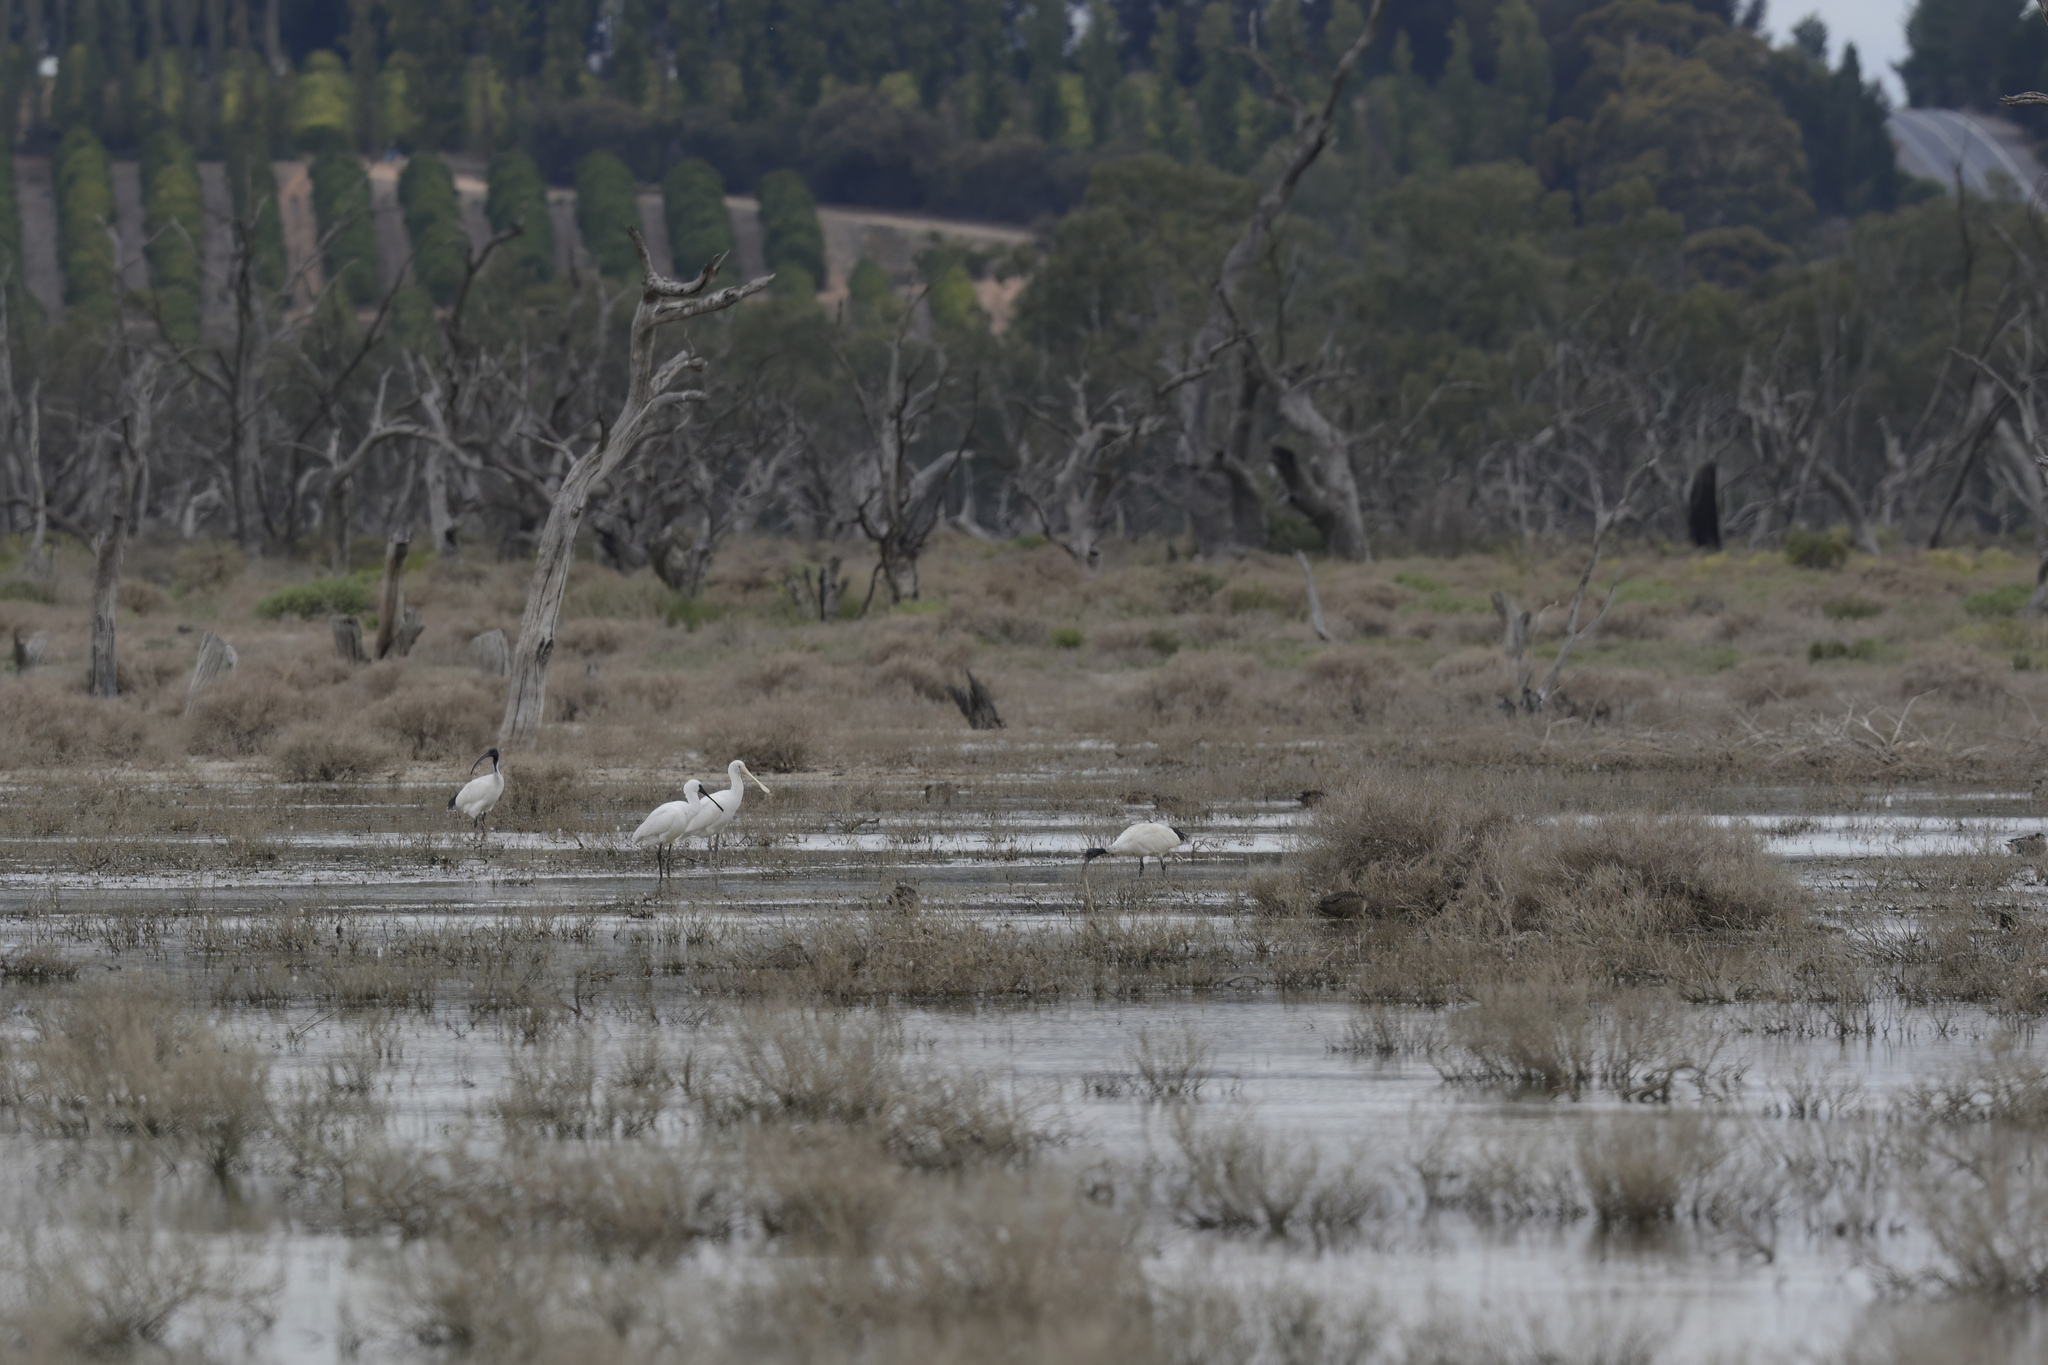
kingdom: Animalia
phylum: Chordata
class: Aves
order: Pelecaniformes
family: Threskiornithidae
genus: Platalea
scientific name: Platalea flavipes
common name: Yellow-billed spoonbill
